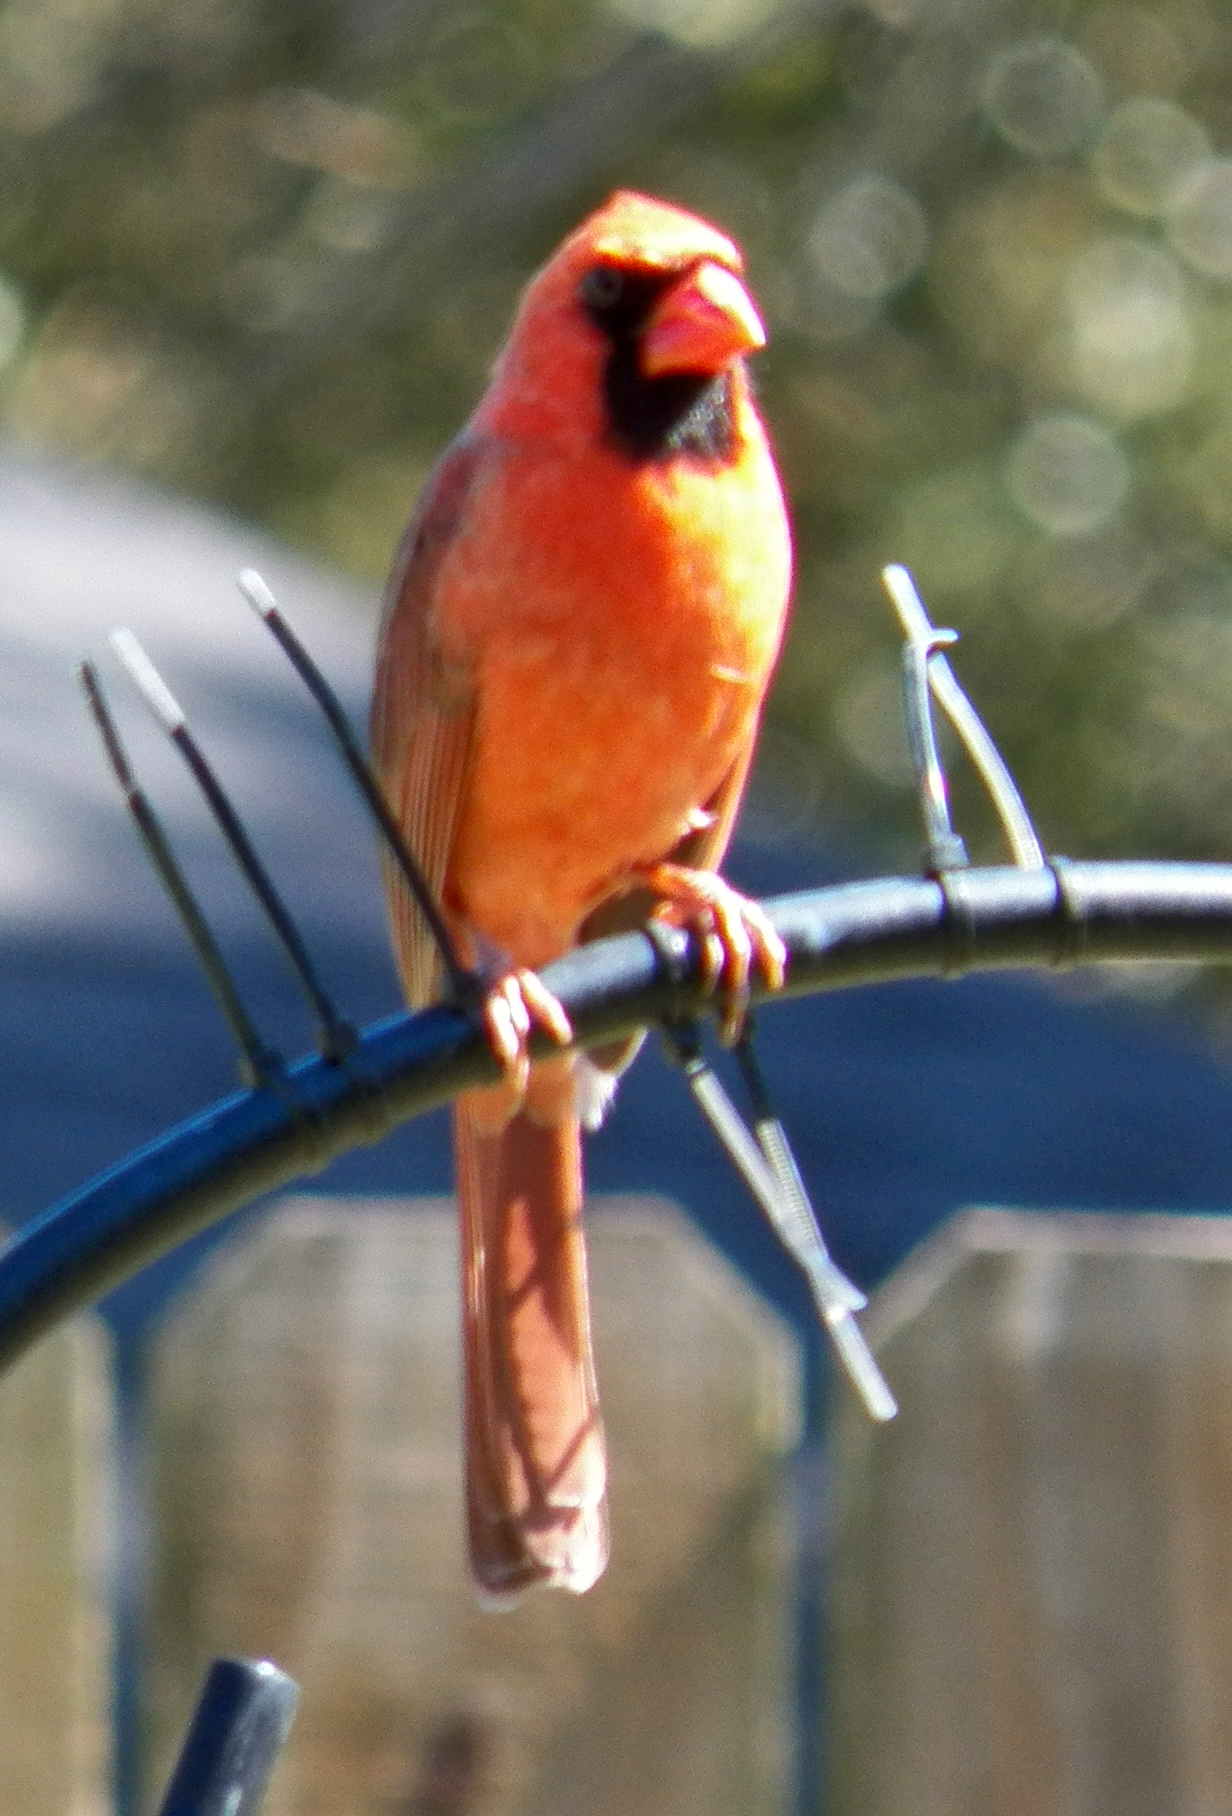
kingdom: Animalia
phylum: Chordata
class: Aves
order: Passeriformes
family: Cardinalidae
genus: Cardinalis
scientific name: Cardinalis cardinalis
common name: Northern cardinal
